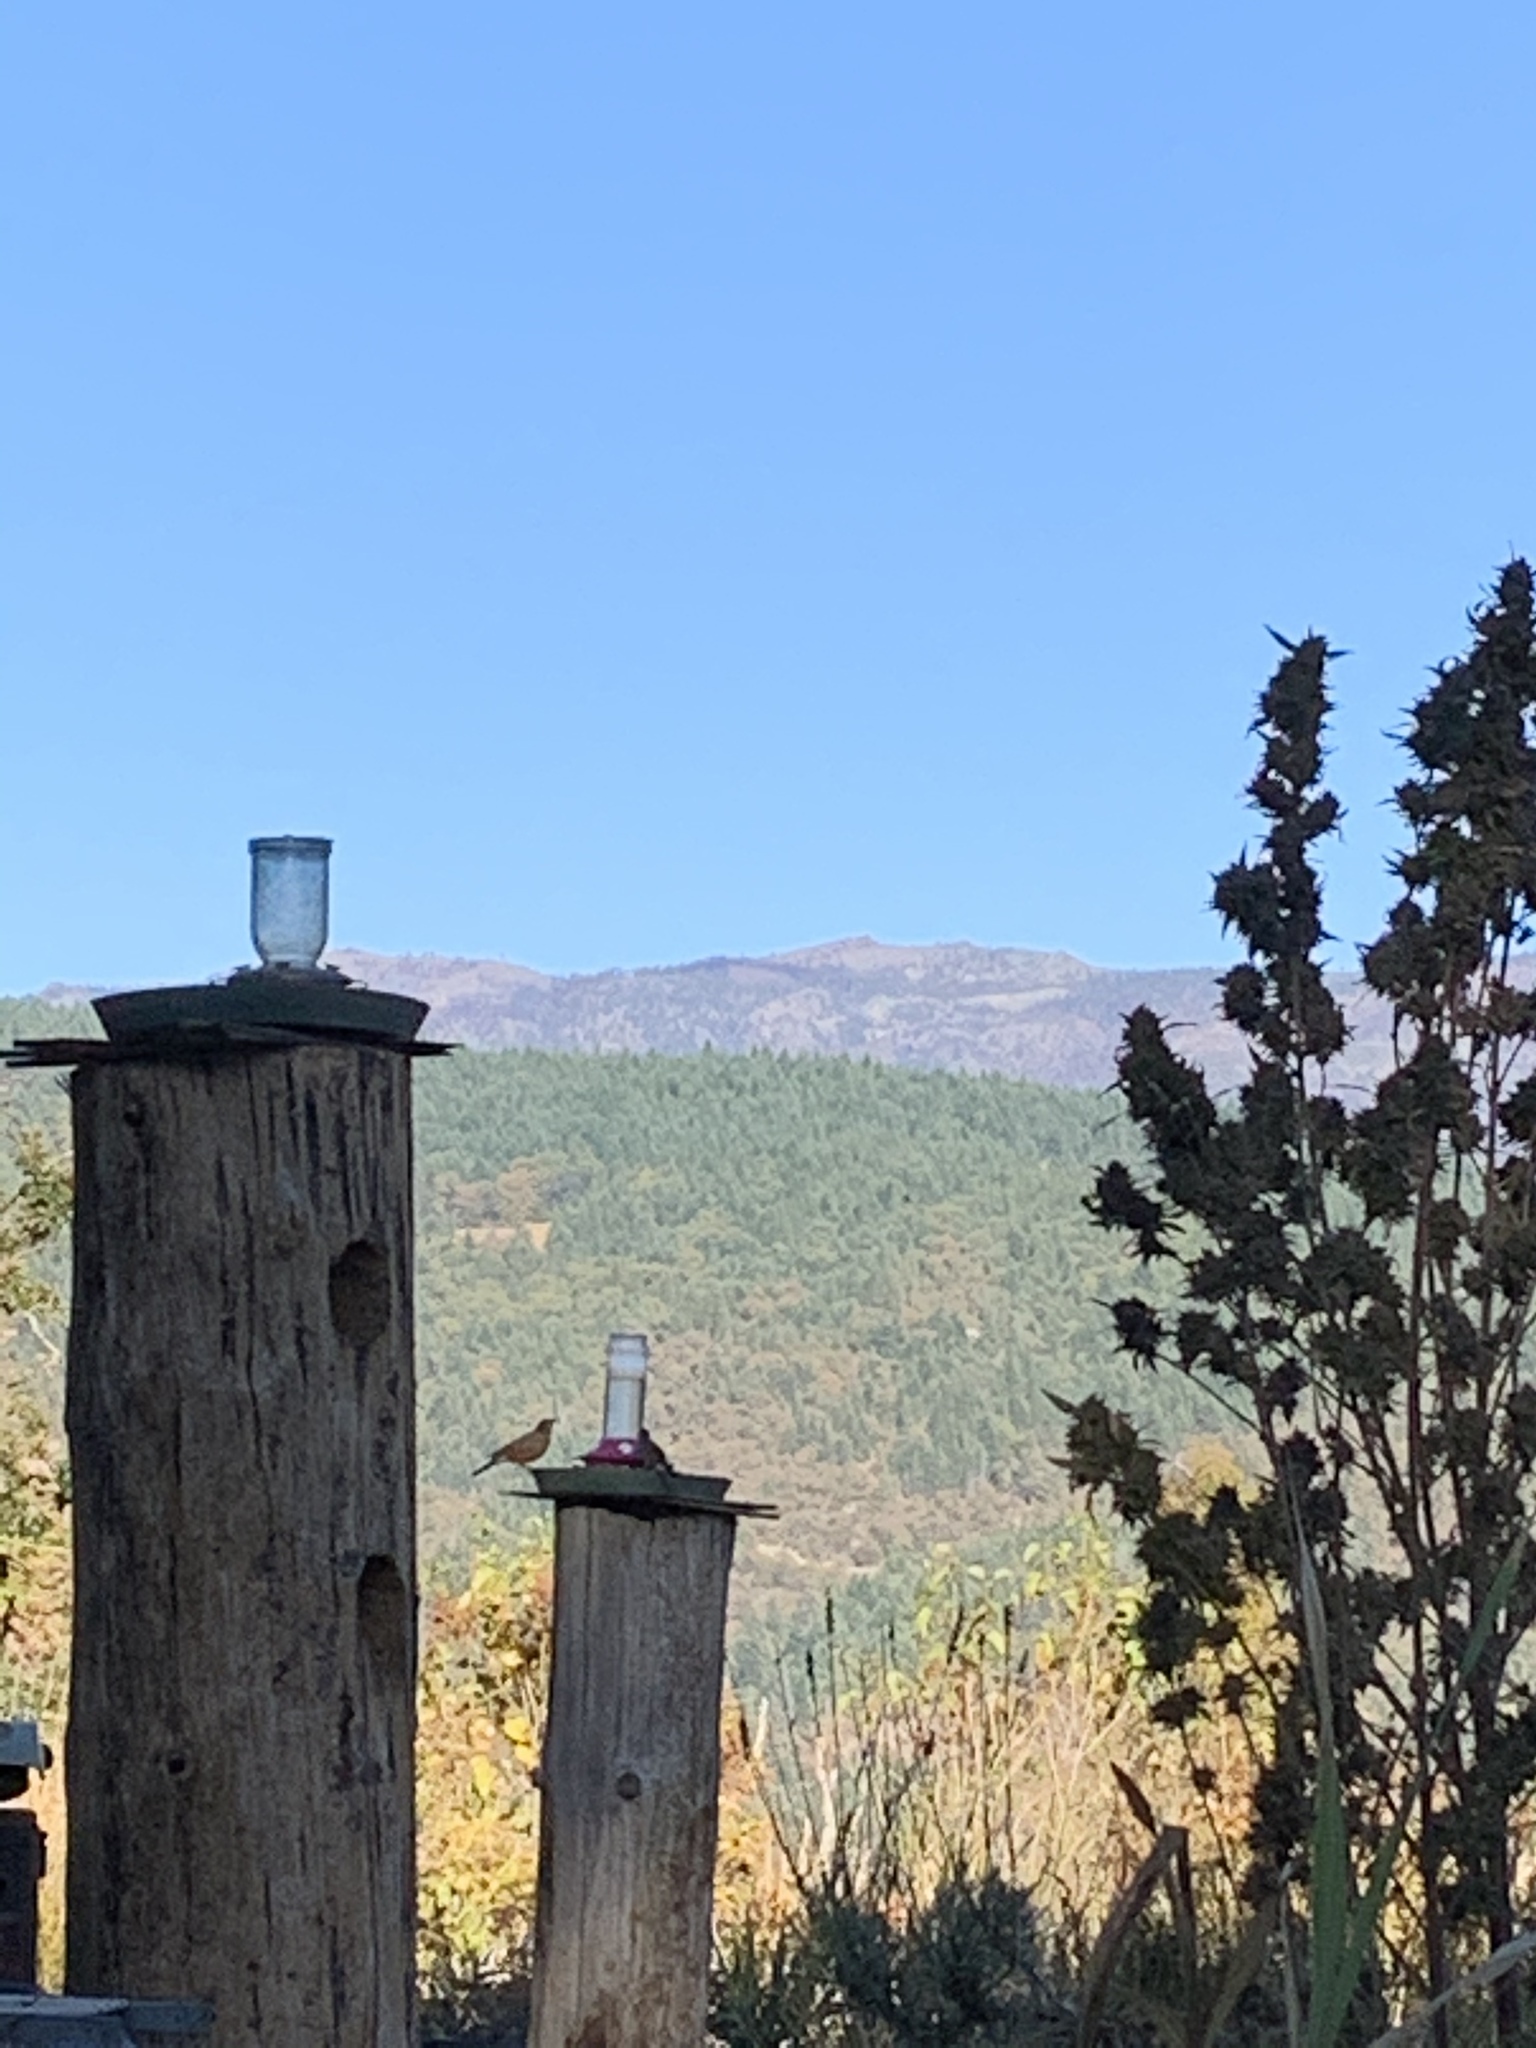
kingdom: Animalia
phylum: Chordata
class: Aves
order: Passeriformes
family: Turdidae
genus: Turdus
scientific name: Turdus migratorius
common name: American robin
